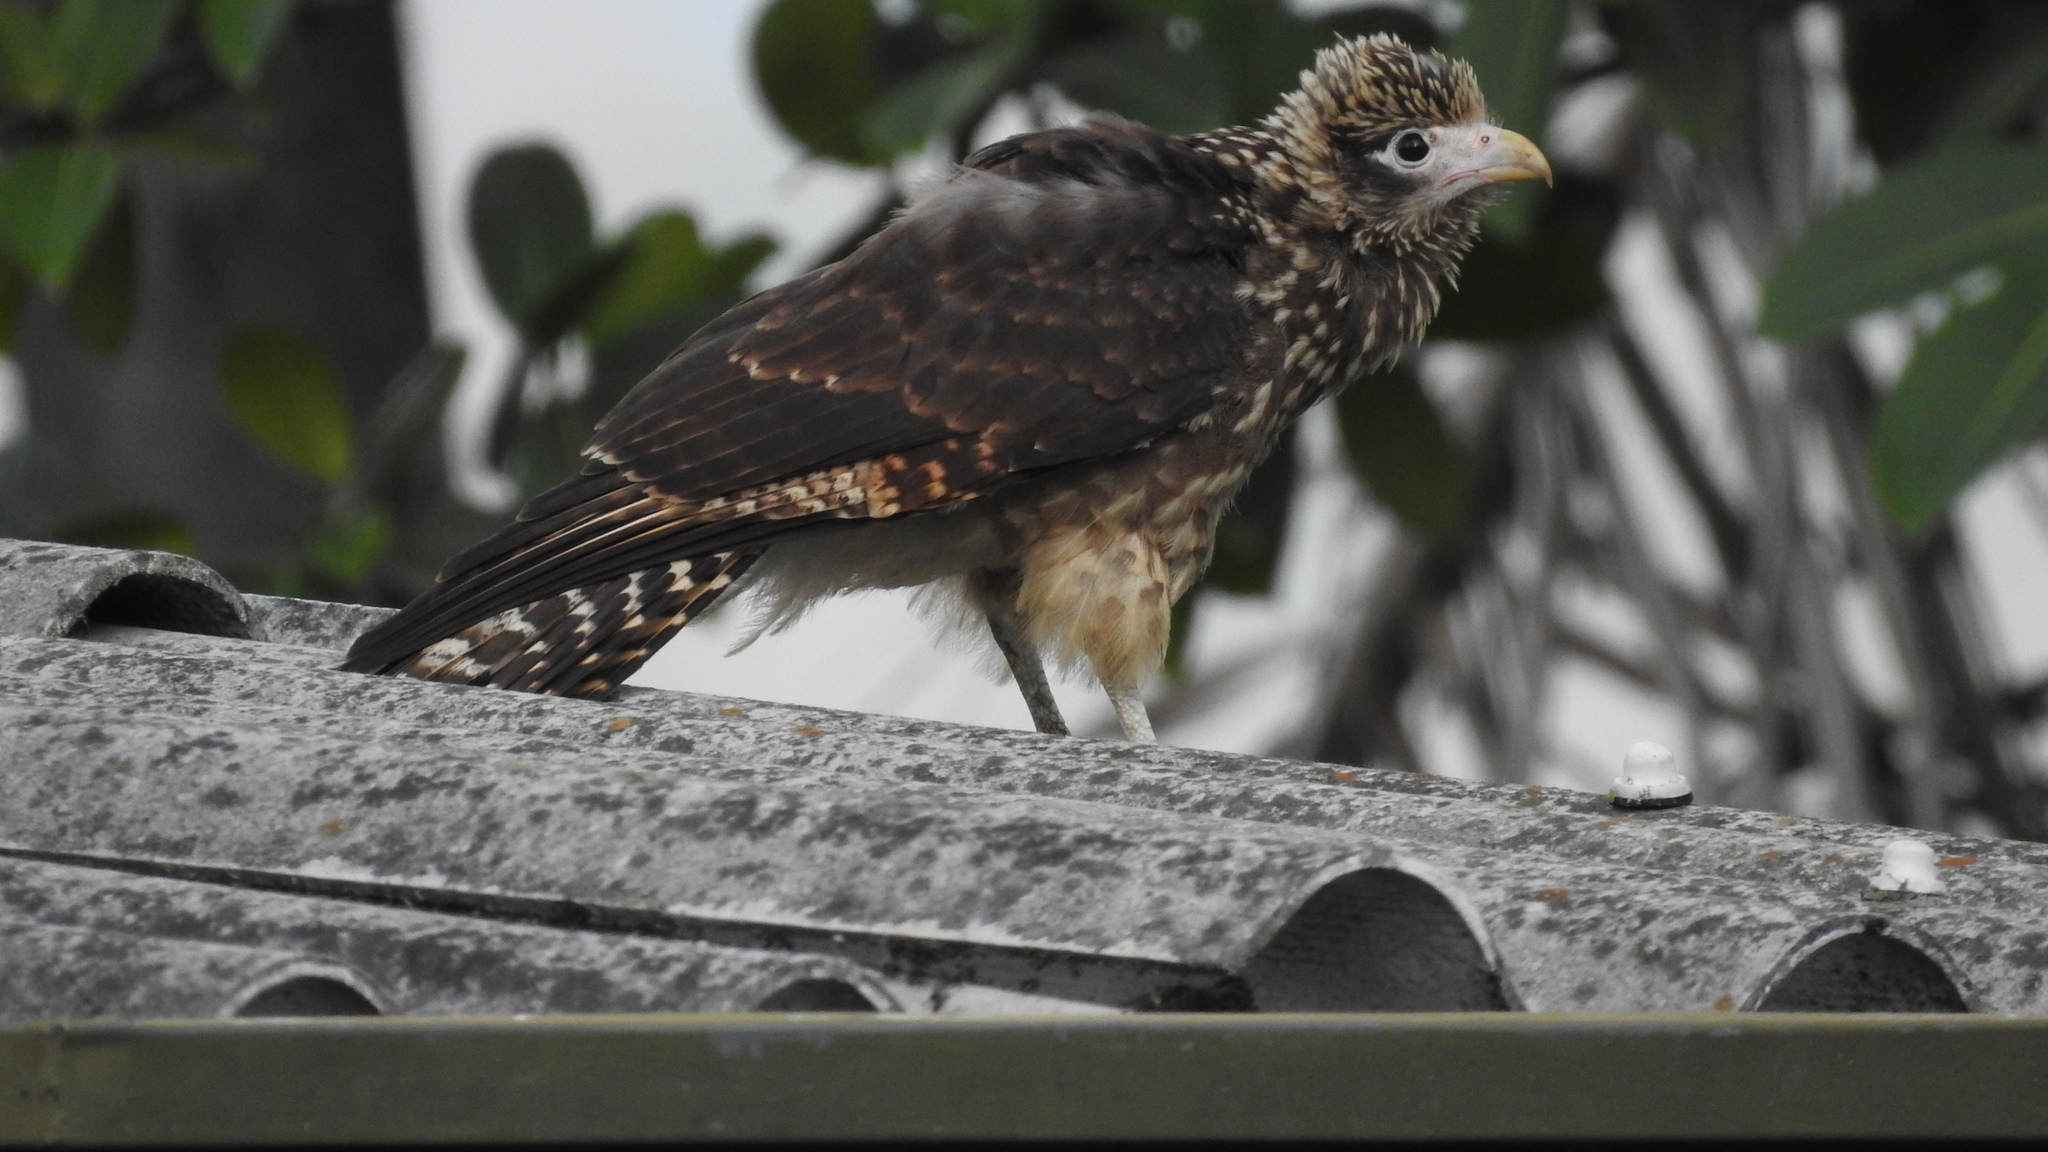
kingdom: Animalia
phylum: Chordata
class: Aves
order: Falconiformes
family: Falconidae
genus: Daptrius
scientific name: Daptrius
